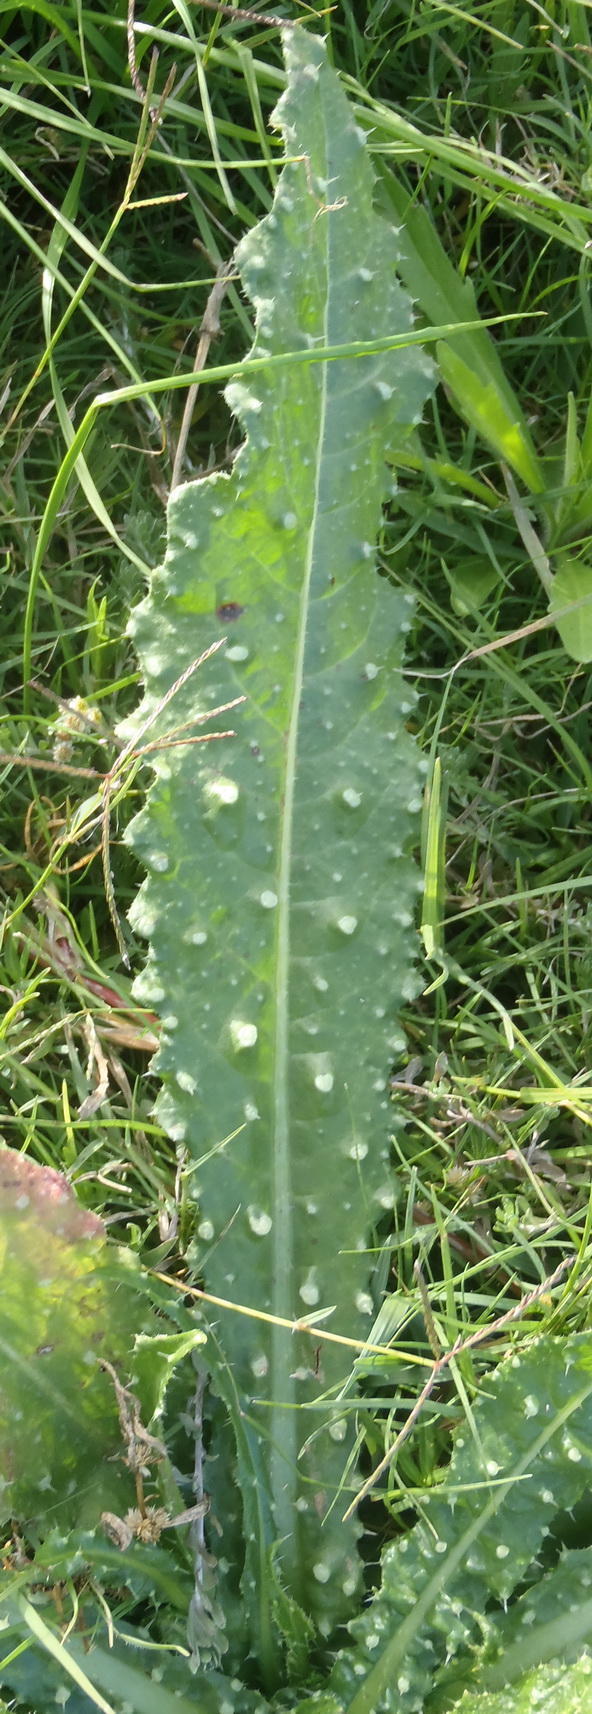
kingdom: Plantae
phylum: Tracheophyta
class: Magnoliopsida
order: Asterales
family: Asteraceae
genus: Helminthotheca
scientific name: Helminthotheca echioides
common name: Ox-tongue
